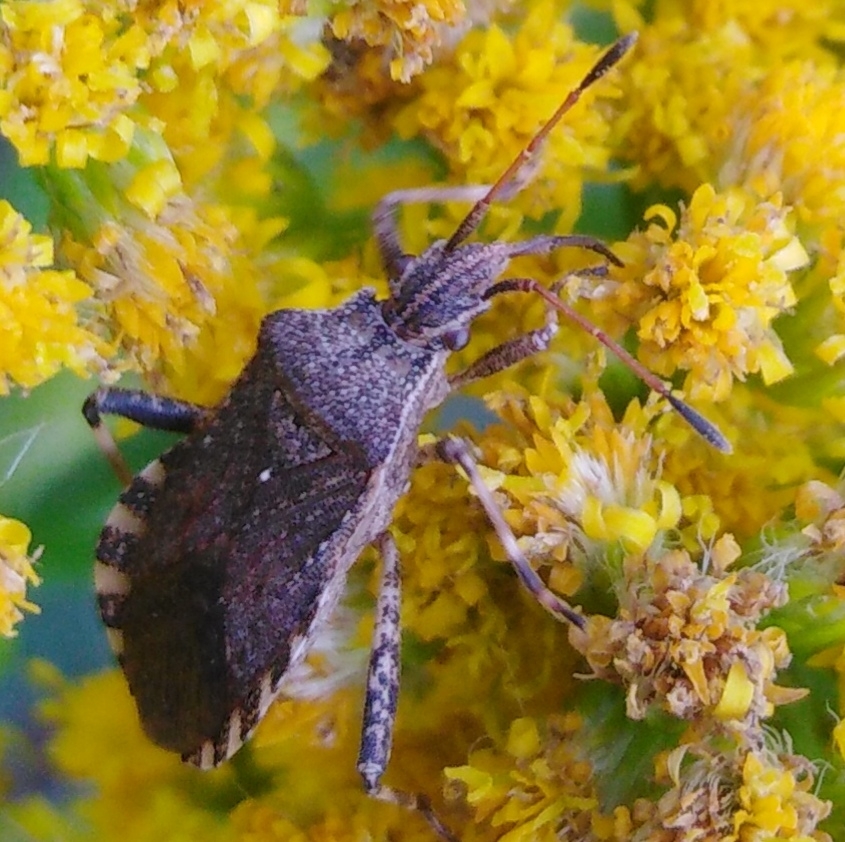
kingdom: Animalia
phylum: Arthropoda
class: Insecta
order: Hemiptera
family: Coreidae
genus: Ceraleptus
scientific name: Ceraleptus gracilicornis
